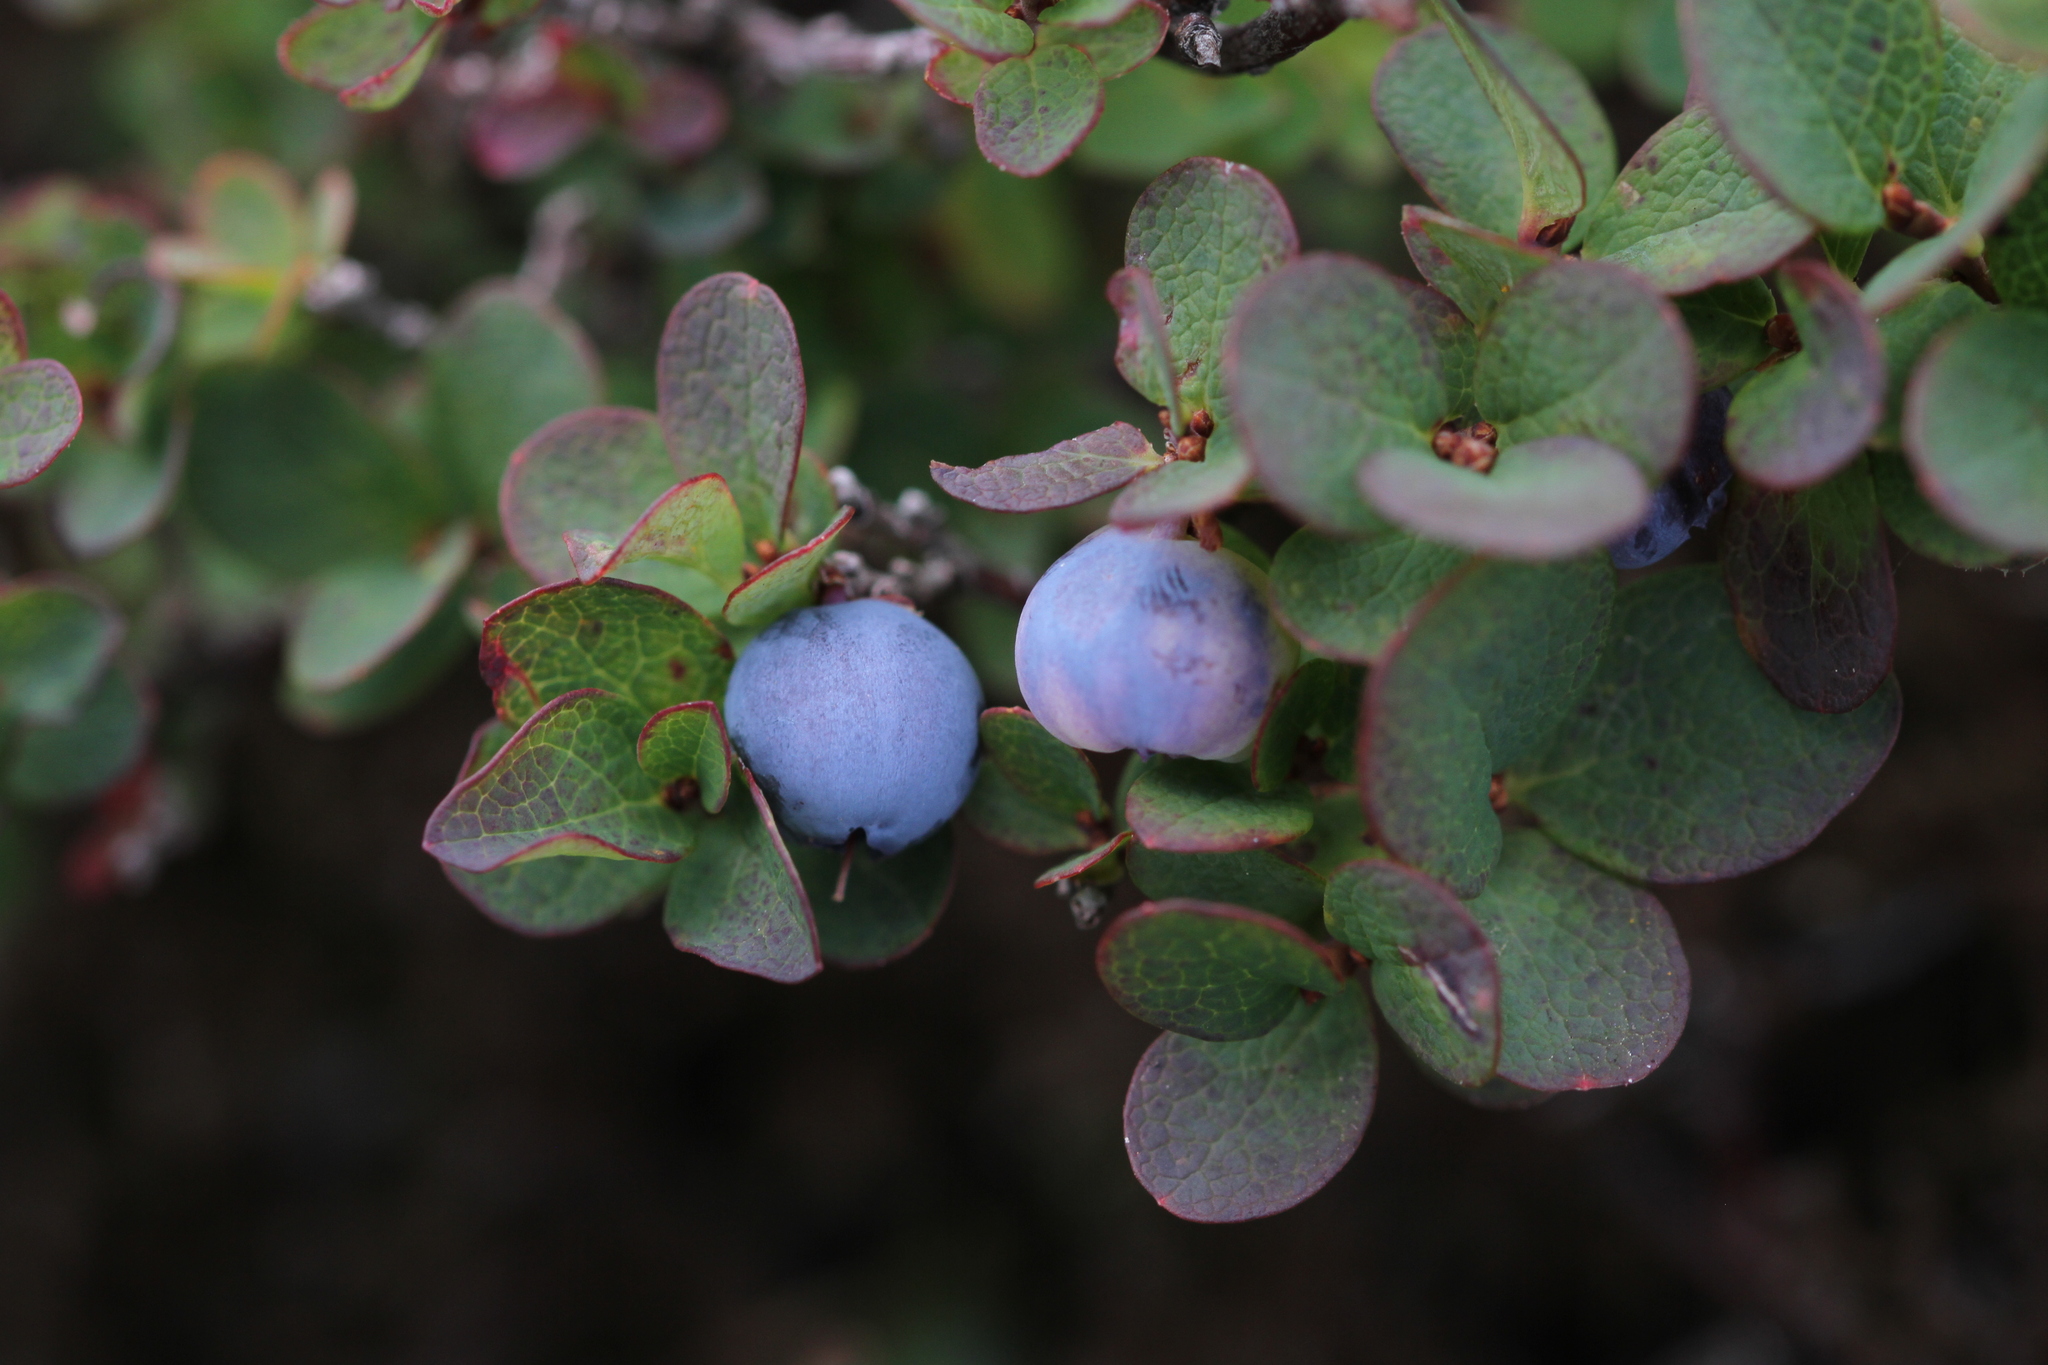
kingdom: Plantae
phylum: Tracheophyta
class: Magnoliopsida
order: Ericales
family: Ericaceae
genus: Vaccinium
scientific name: Vaccinium uliginosum
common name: Bog bilberry
